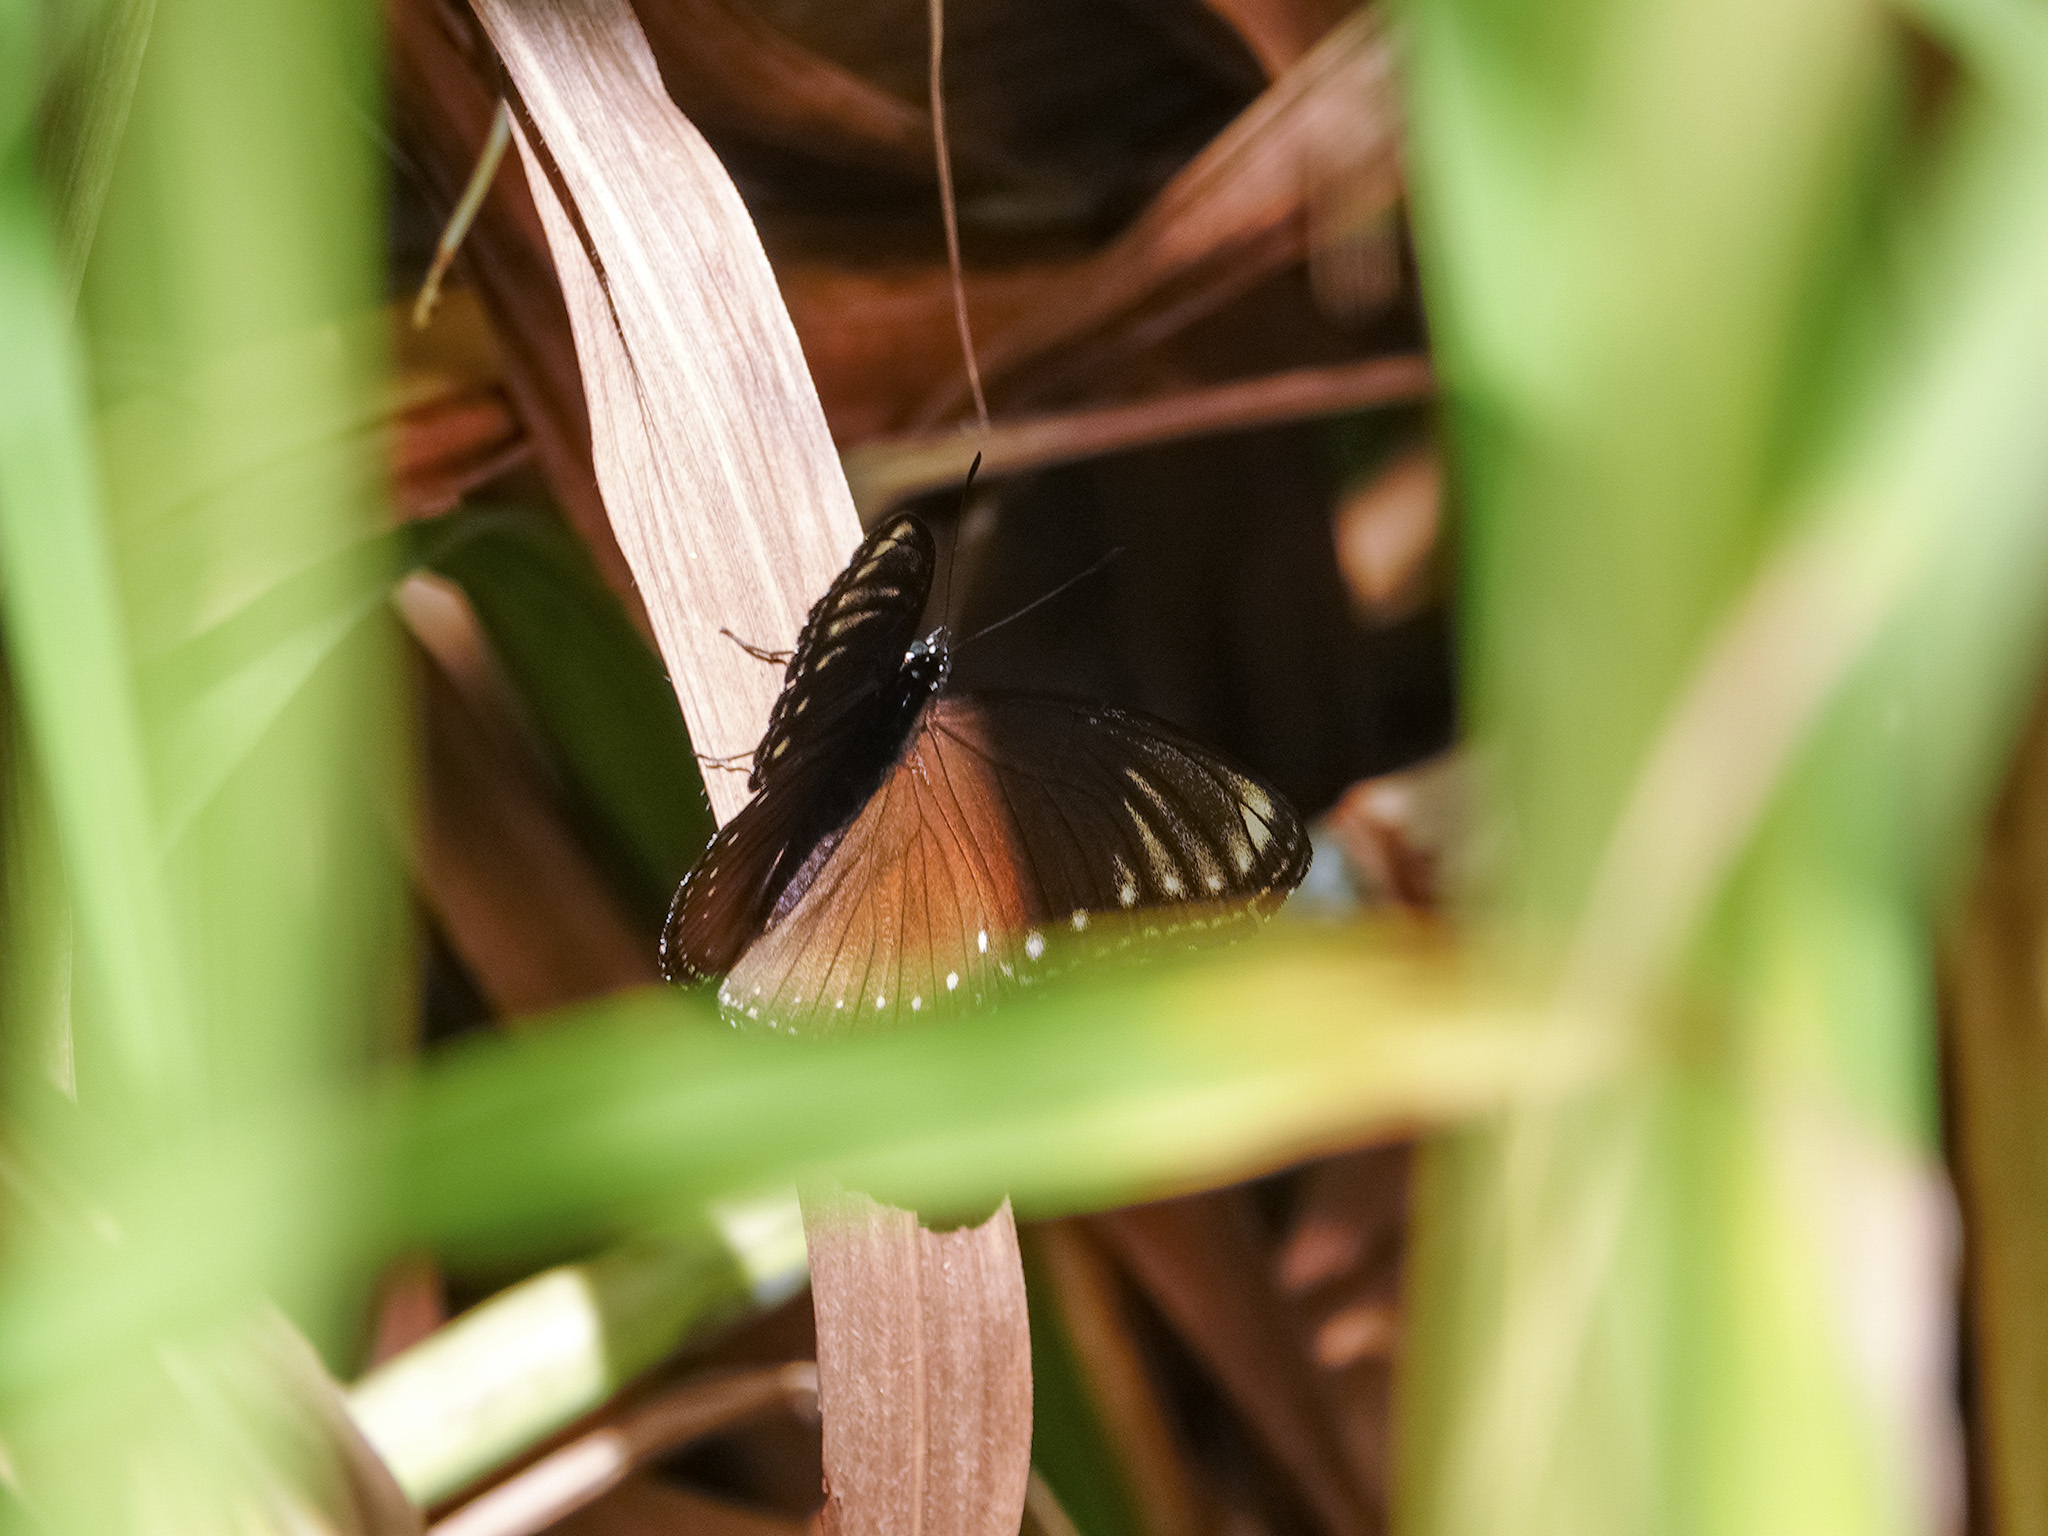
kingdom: Animalia
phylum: Arthropoda
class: Insecta
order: Lepidoptera
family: Nymphalidae
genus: Hypolimnas
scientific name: Hypolimnas anomala
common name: Malayan eggfly
